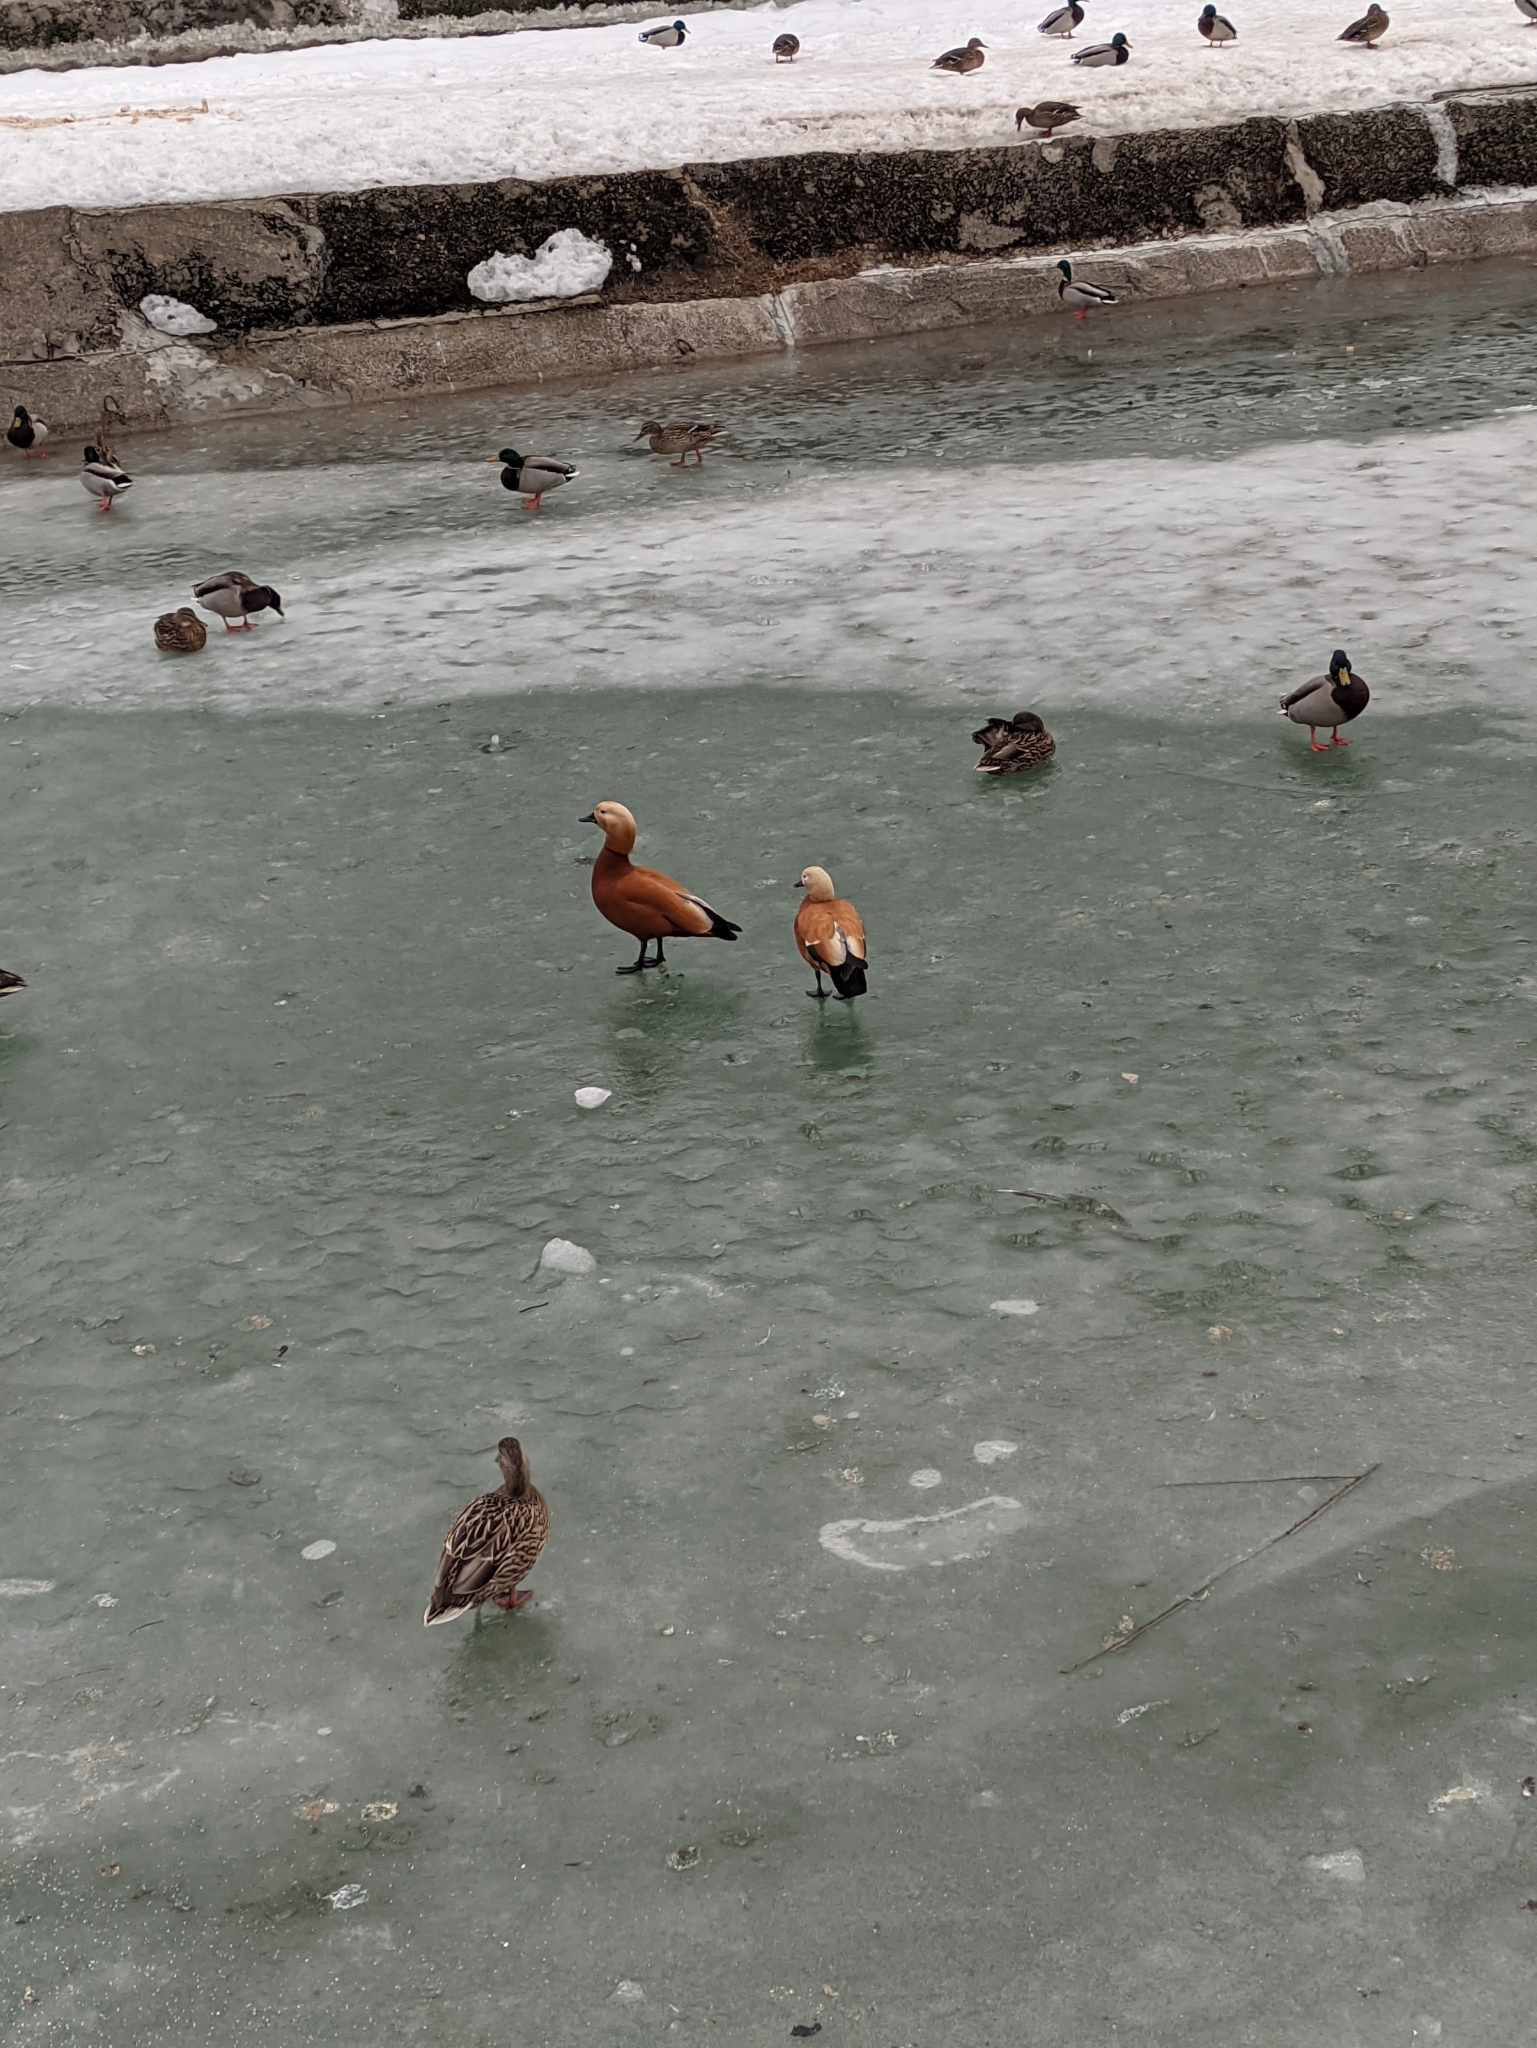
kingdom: Animalia
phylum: Chordata
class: Aves
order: Anseriformes
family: Anatidae
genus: Tadorna
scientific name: Tadorna ferruginea
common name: Ruddy shelduck
